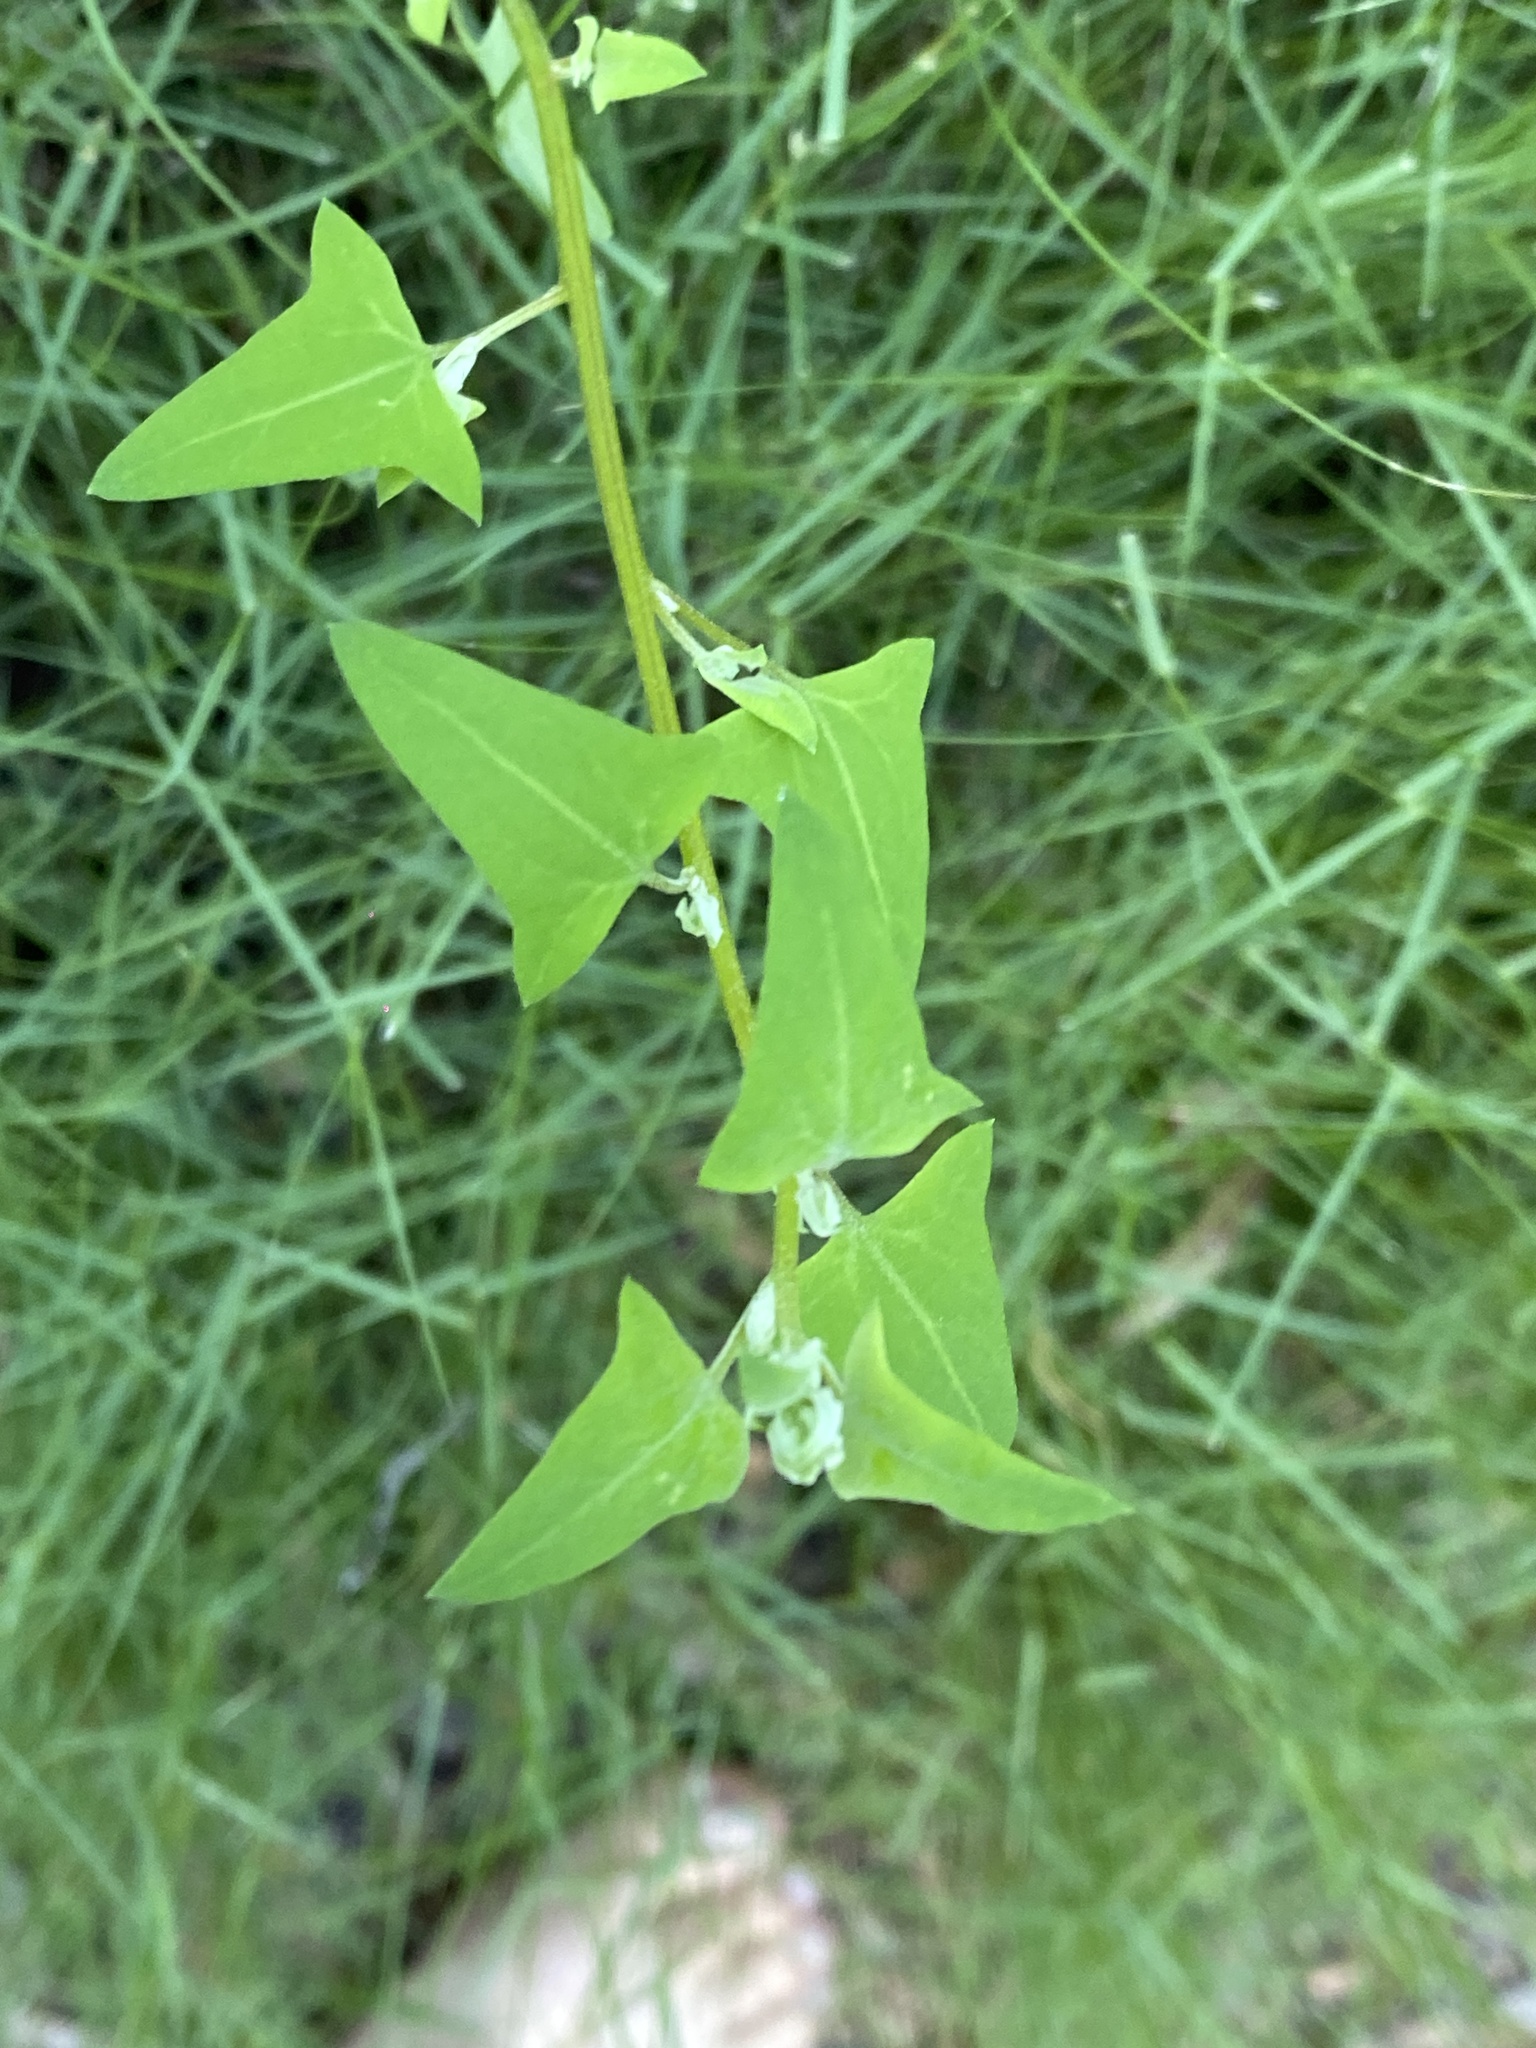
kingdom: Plantae
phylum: Tracheophyta
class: Magnoliopsida
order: Caryophyllales
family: Amaranthaceae
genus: Chenopodium
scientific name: Chenopodium trigonon
